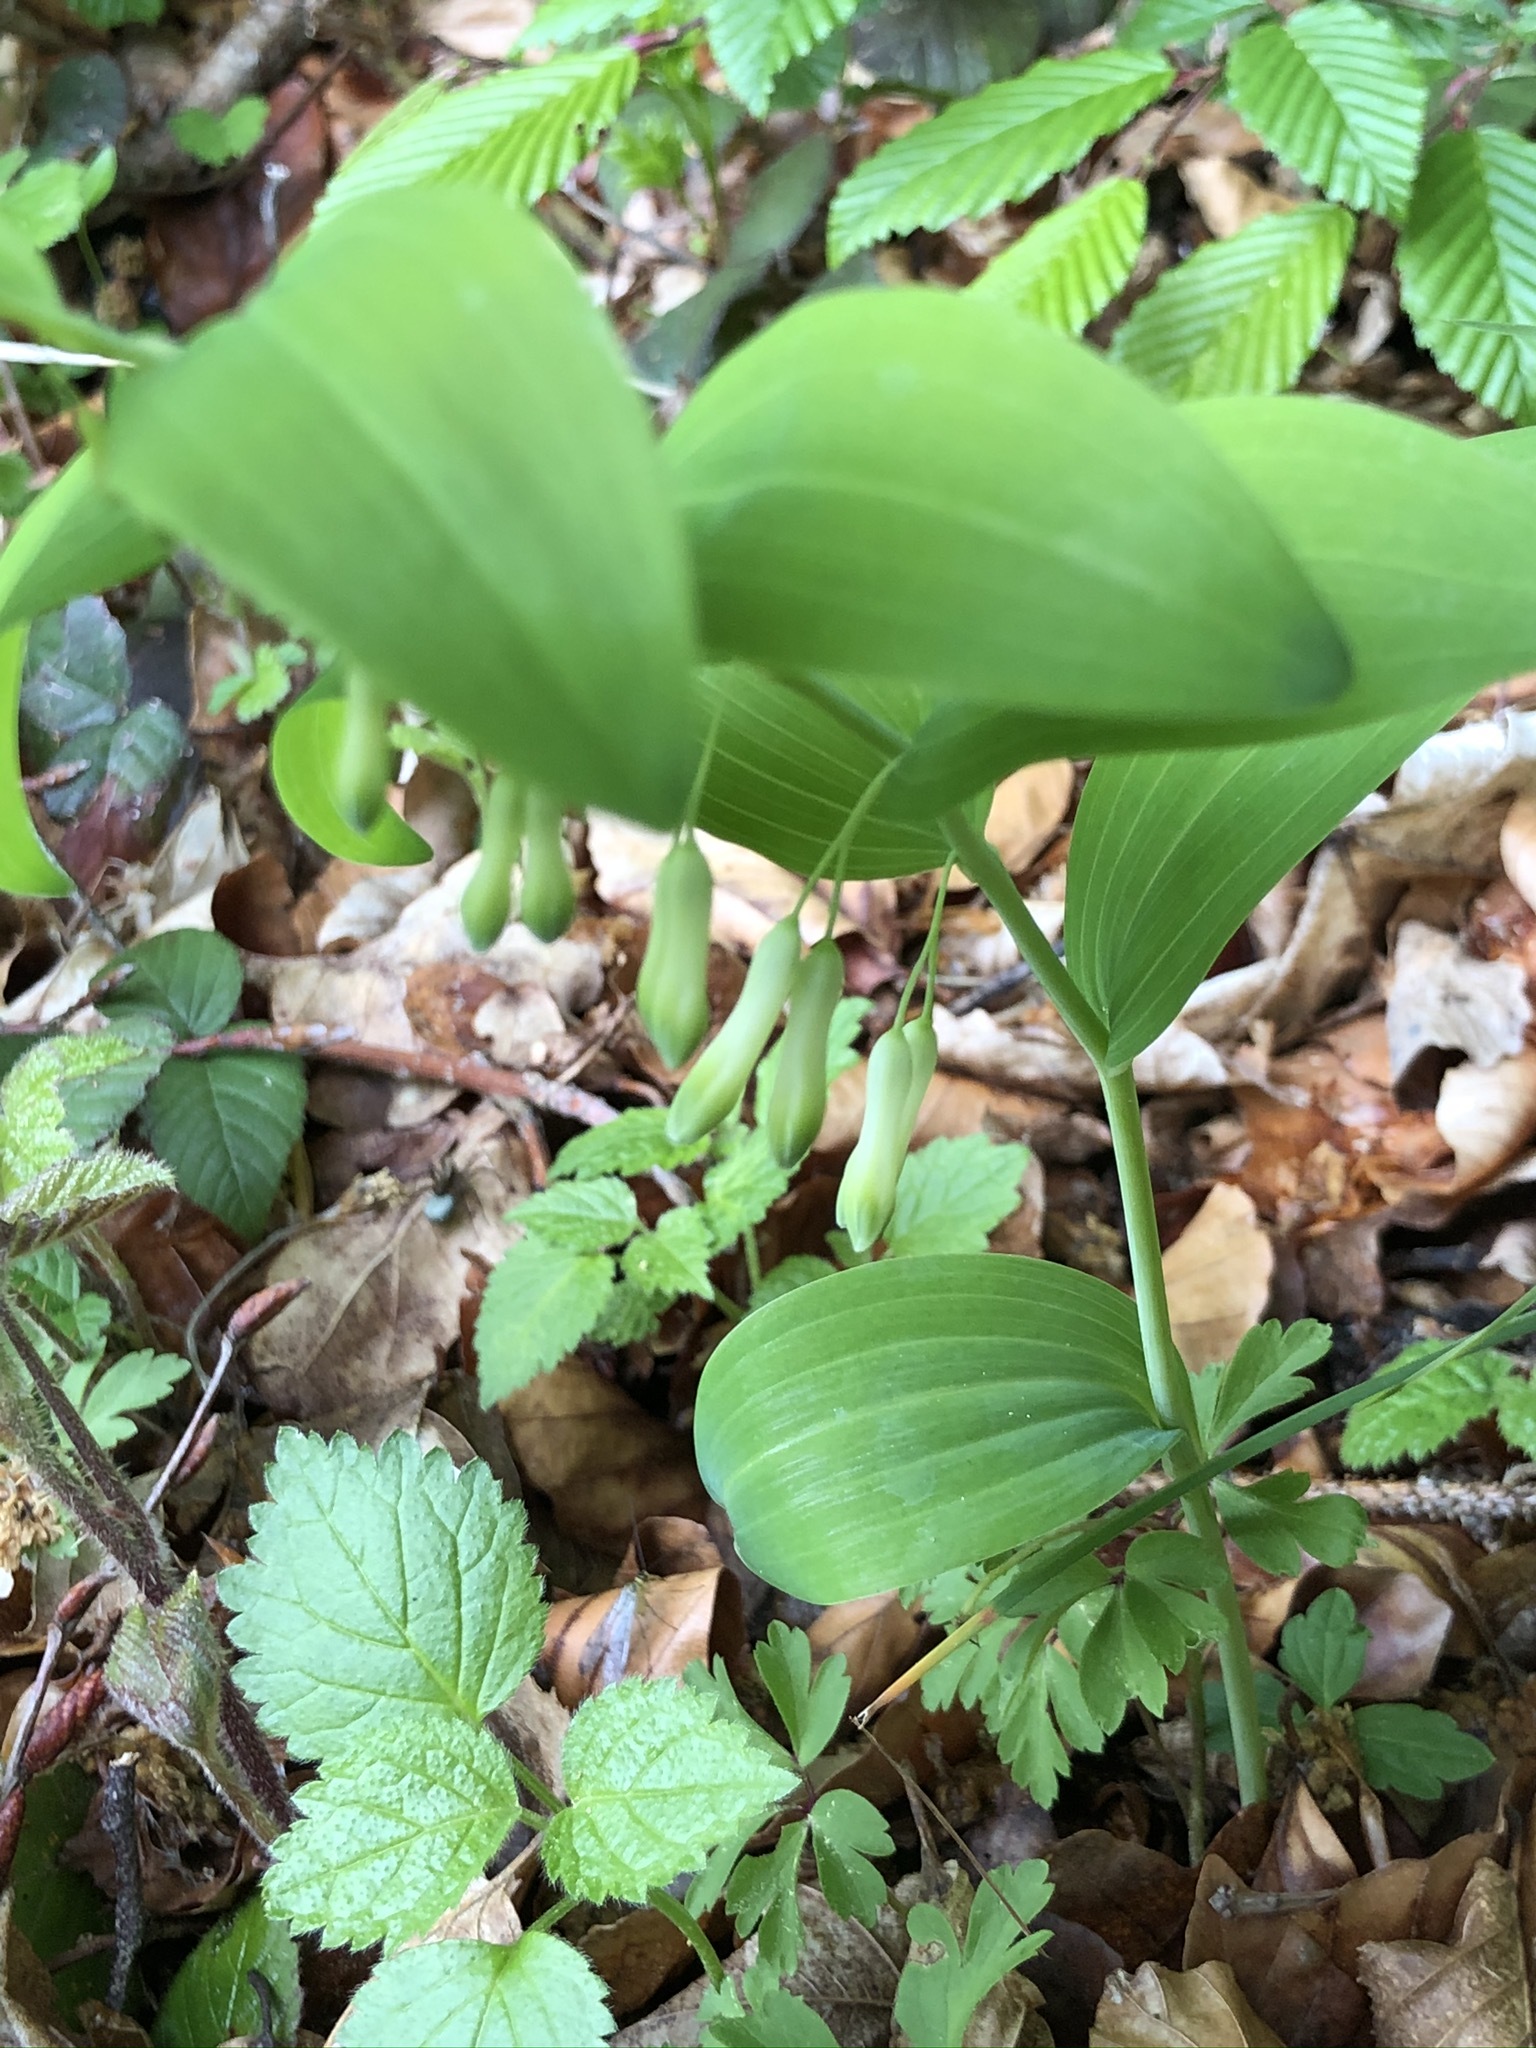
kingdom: Plantae
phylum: Tracheophyta
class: Liliopsida
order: Asparagales
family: Asparagaceae
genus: Polygonatum
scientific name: Polygonatum multiflorum
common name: Solomon's-seal
